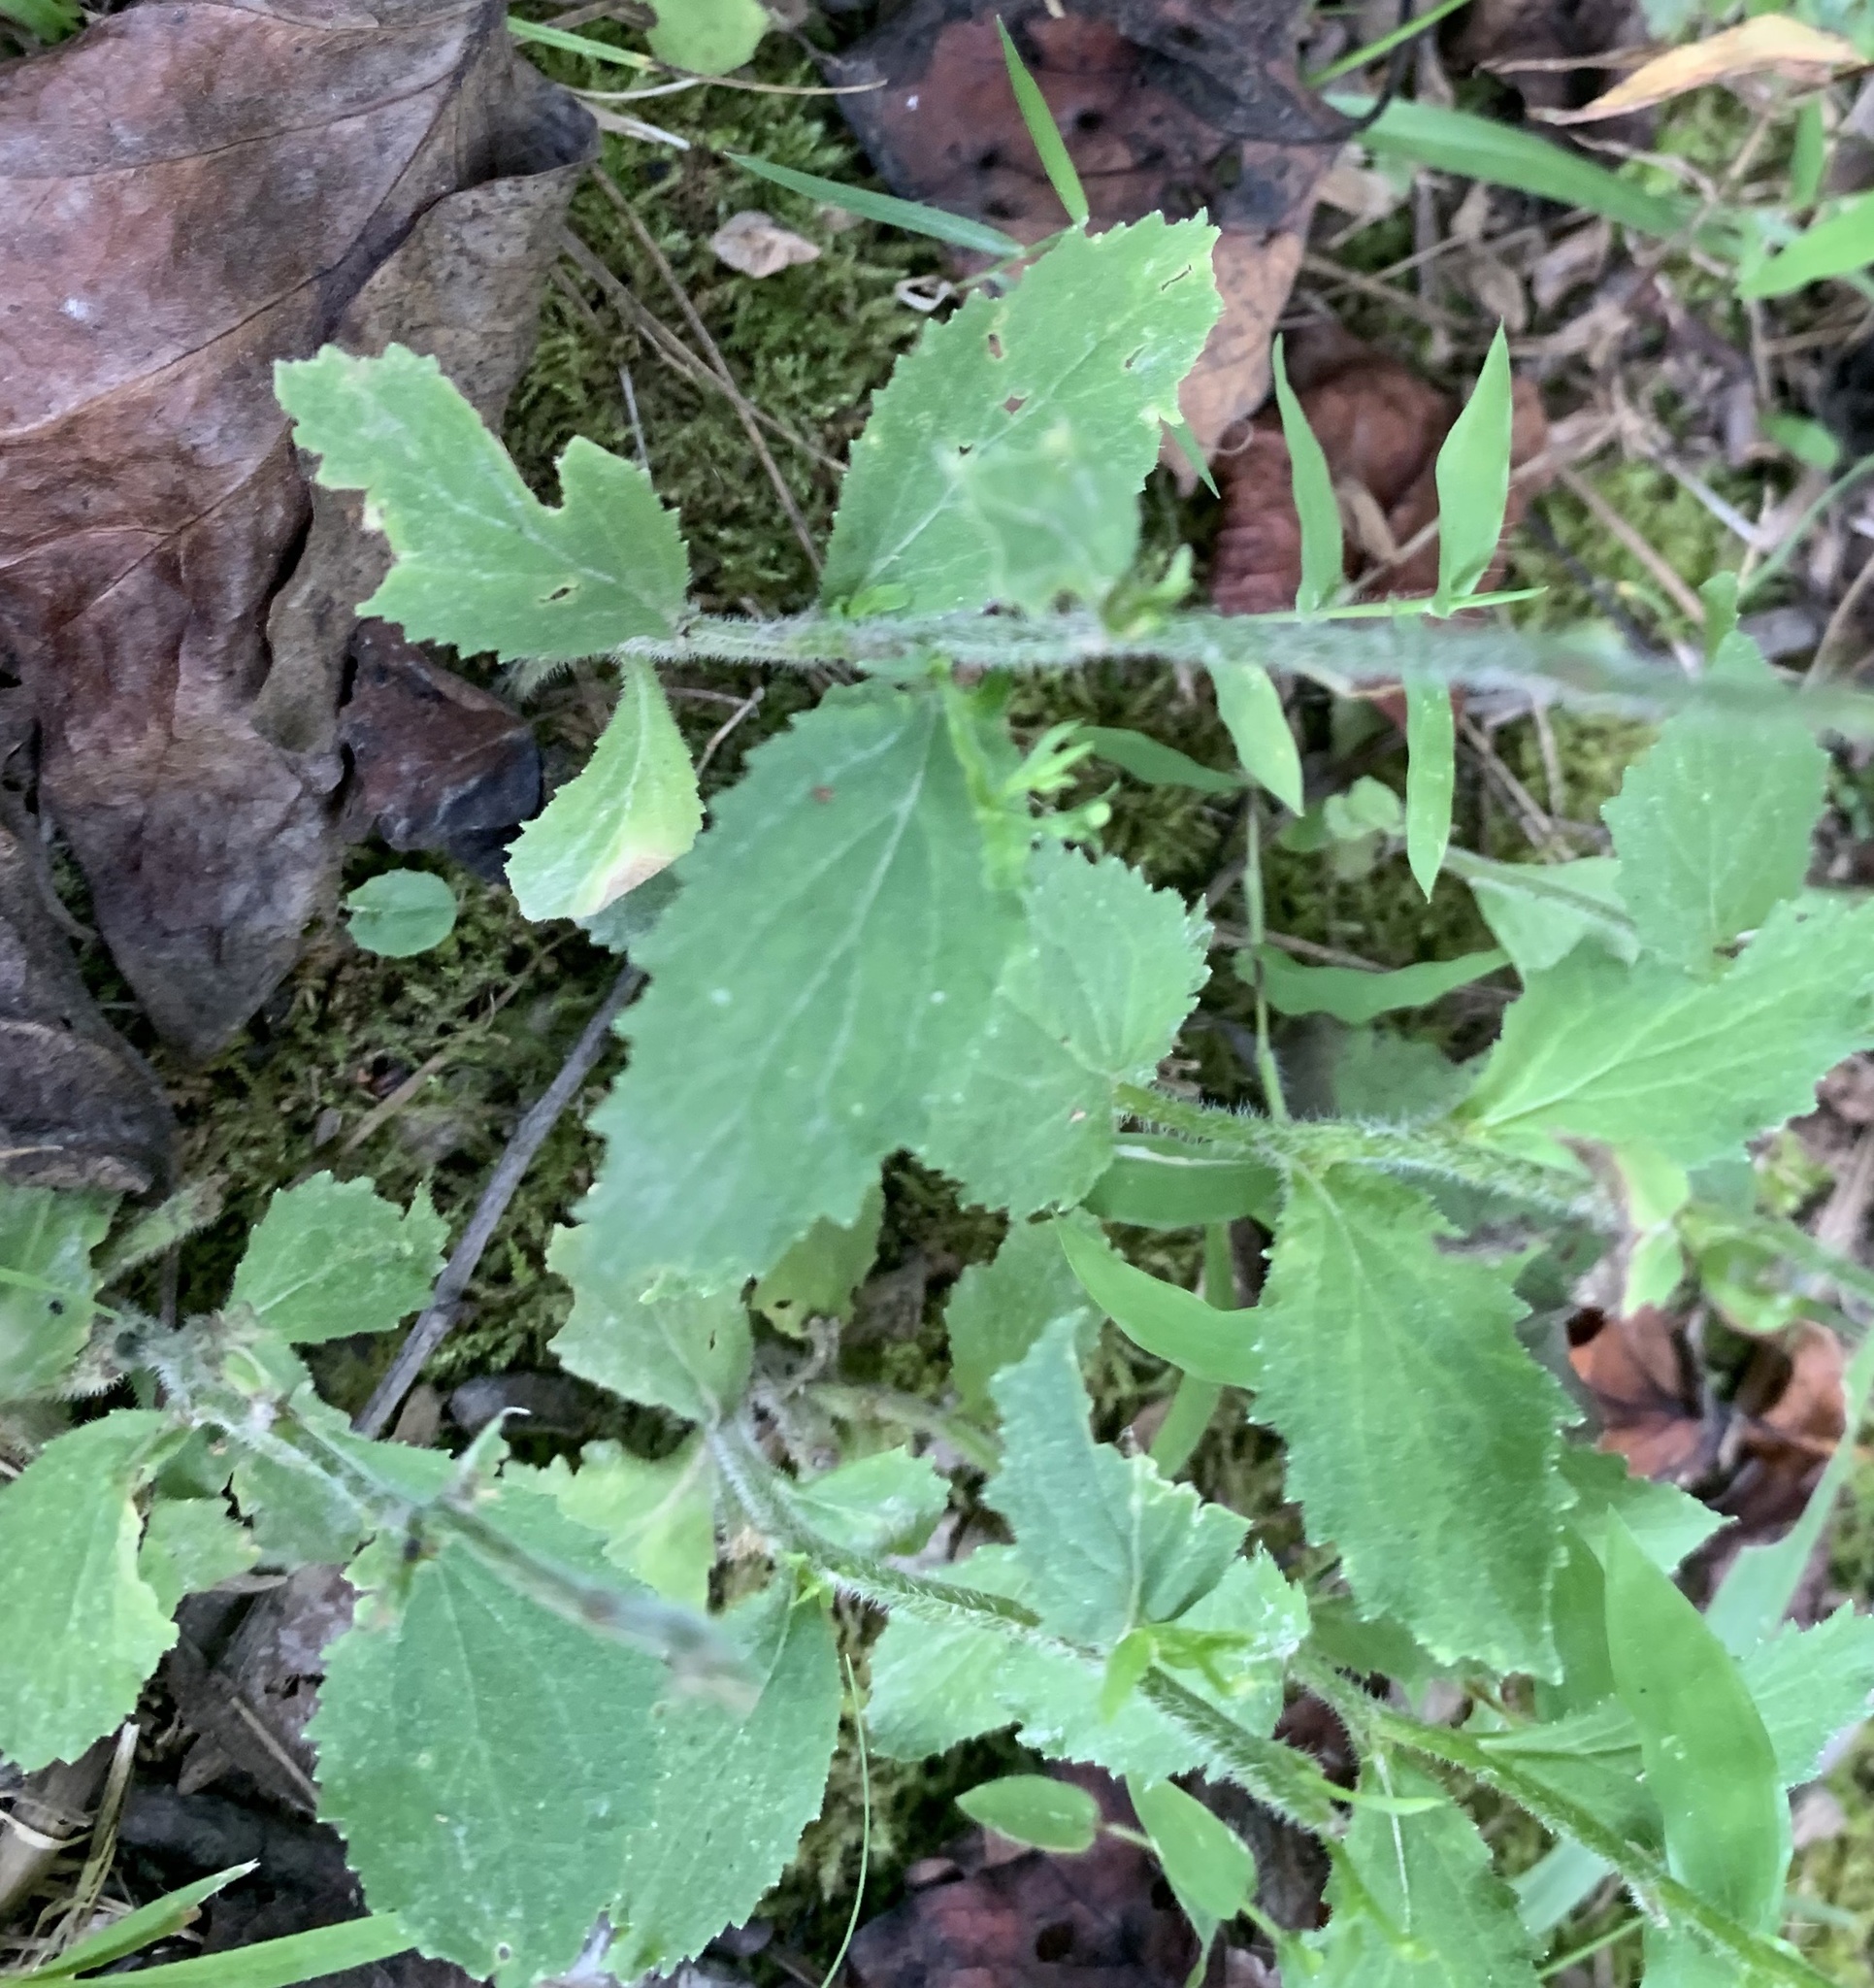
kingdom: Plantae
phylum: Tracheophyta
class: Magnoliopsida
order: Asterales
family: Campanulaceae
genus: Lobelia
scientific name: Lobelia inflata
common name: Indian tobacco
